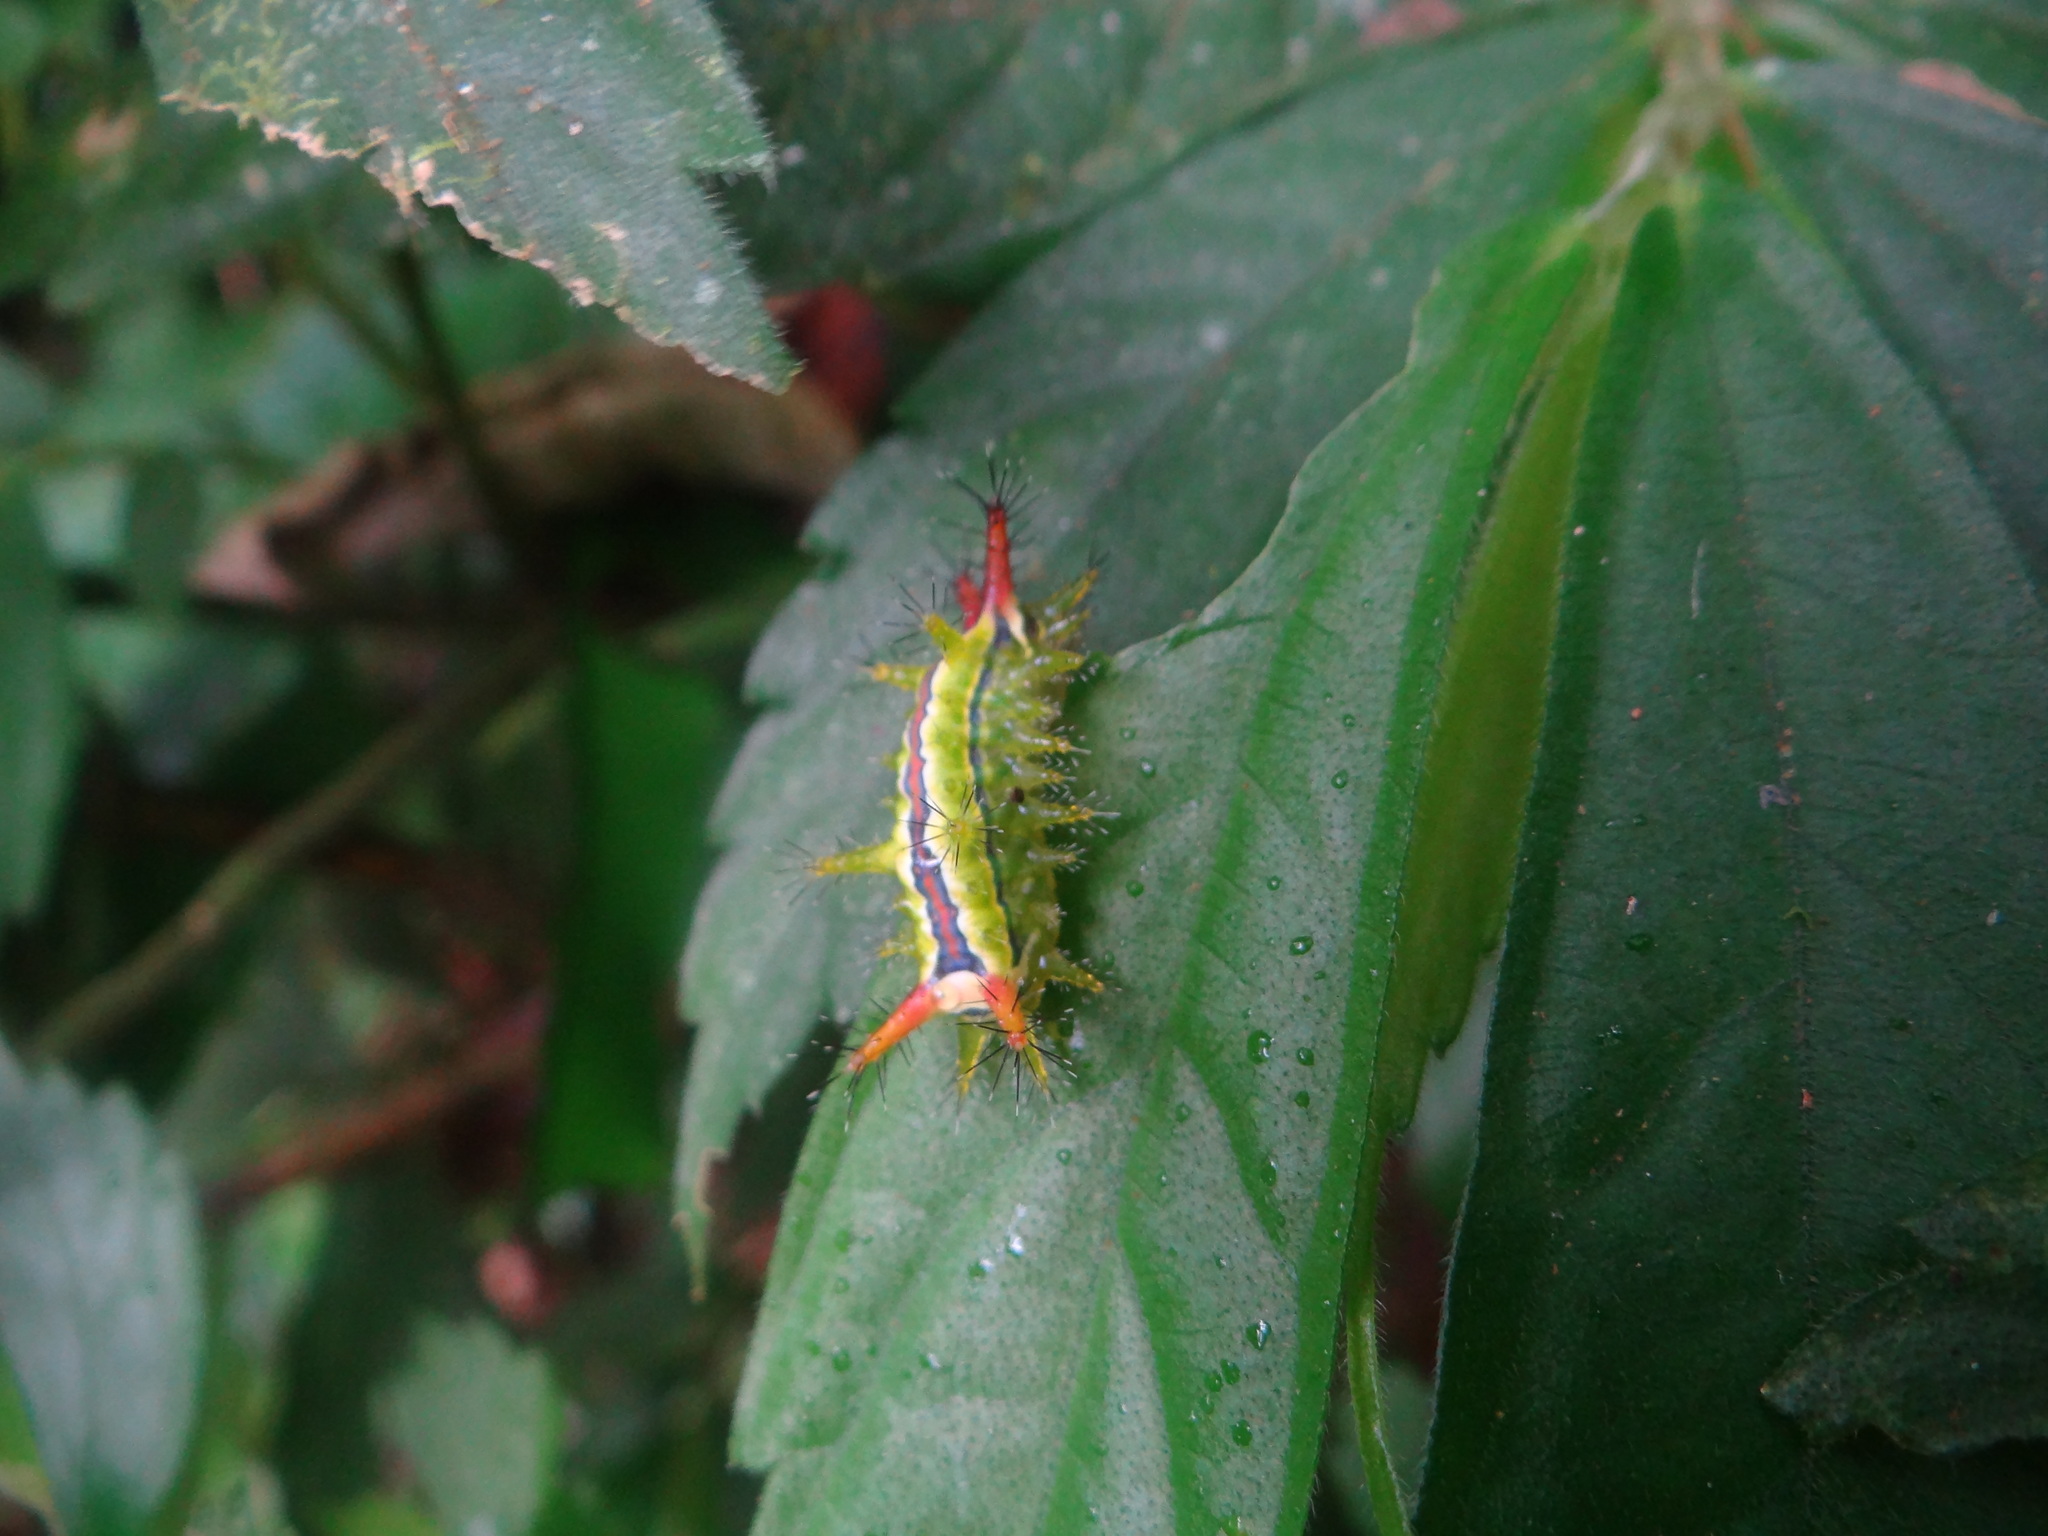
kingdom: Animalia
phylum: Arthropoda
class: Insecta
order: Lepidoptera
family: Limacodidae
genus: Birthamula
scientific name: Birthamula rufa
